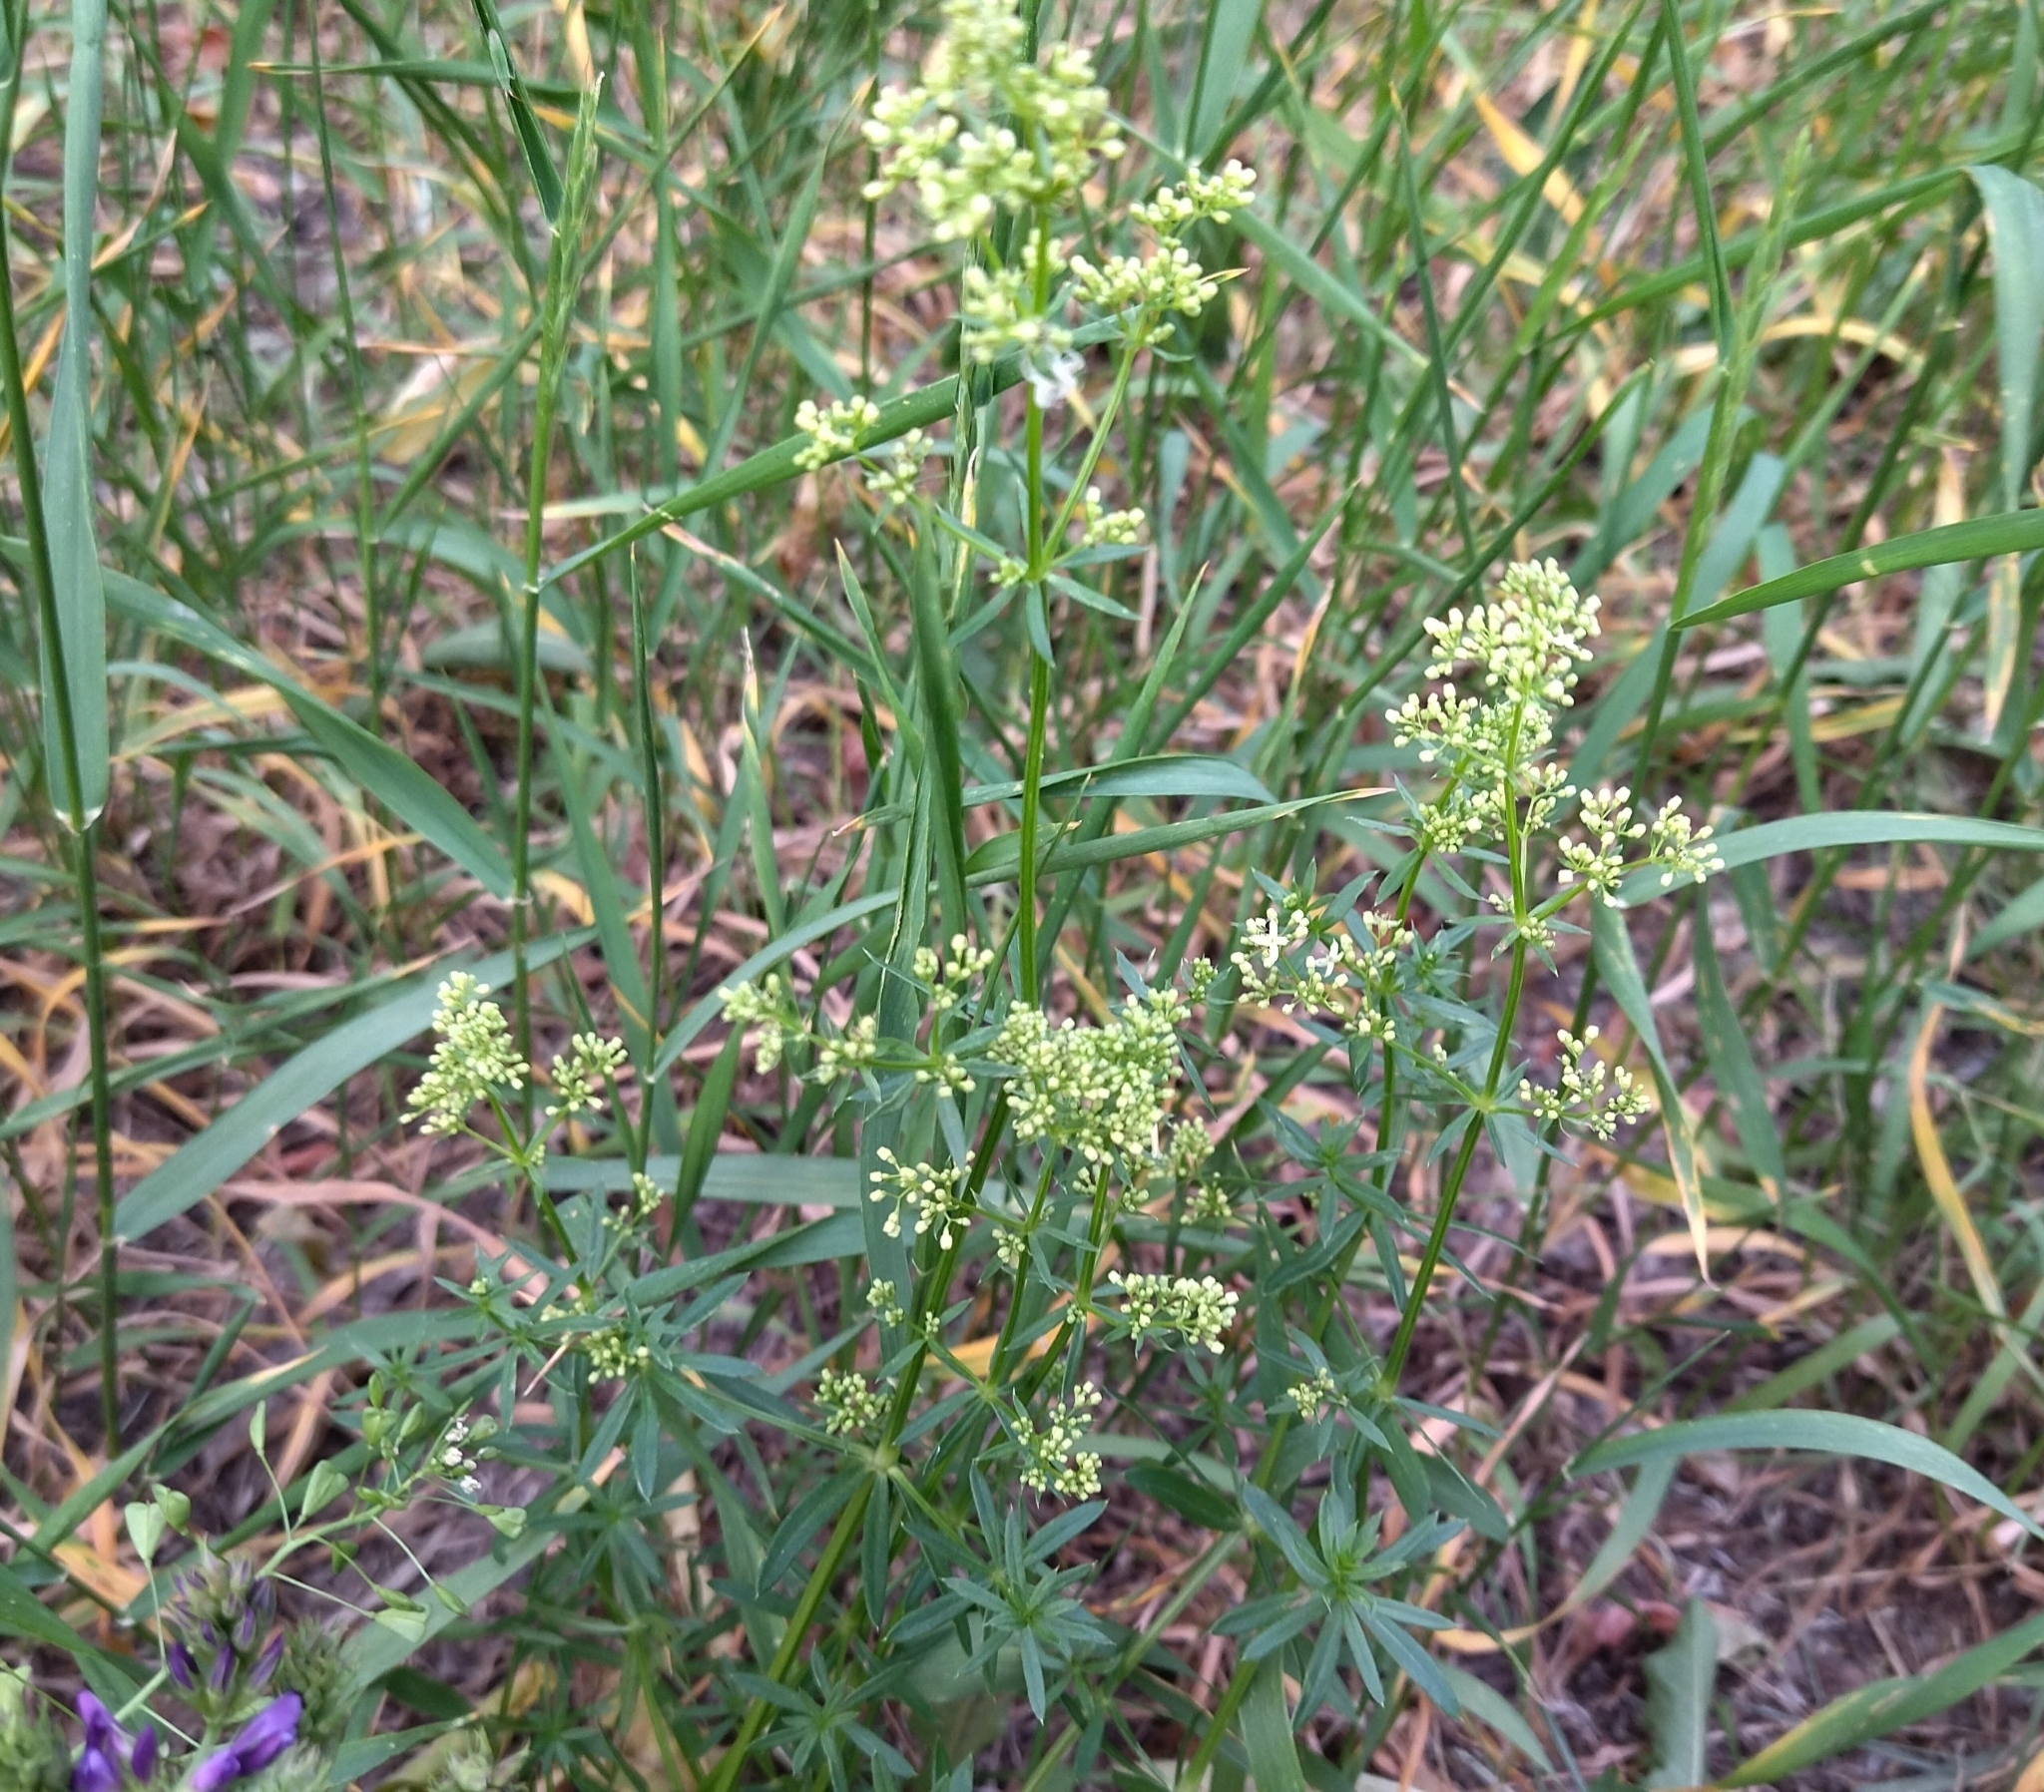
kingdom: Plantae
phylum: Tracheophyta
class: Magnoliopsida
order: Gentianales
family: Rubiaceae
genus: Galium
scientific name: Galium mollugo
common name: Hedge bedstraw
